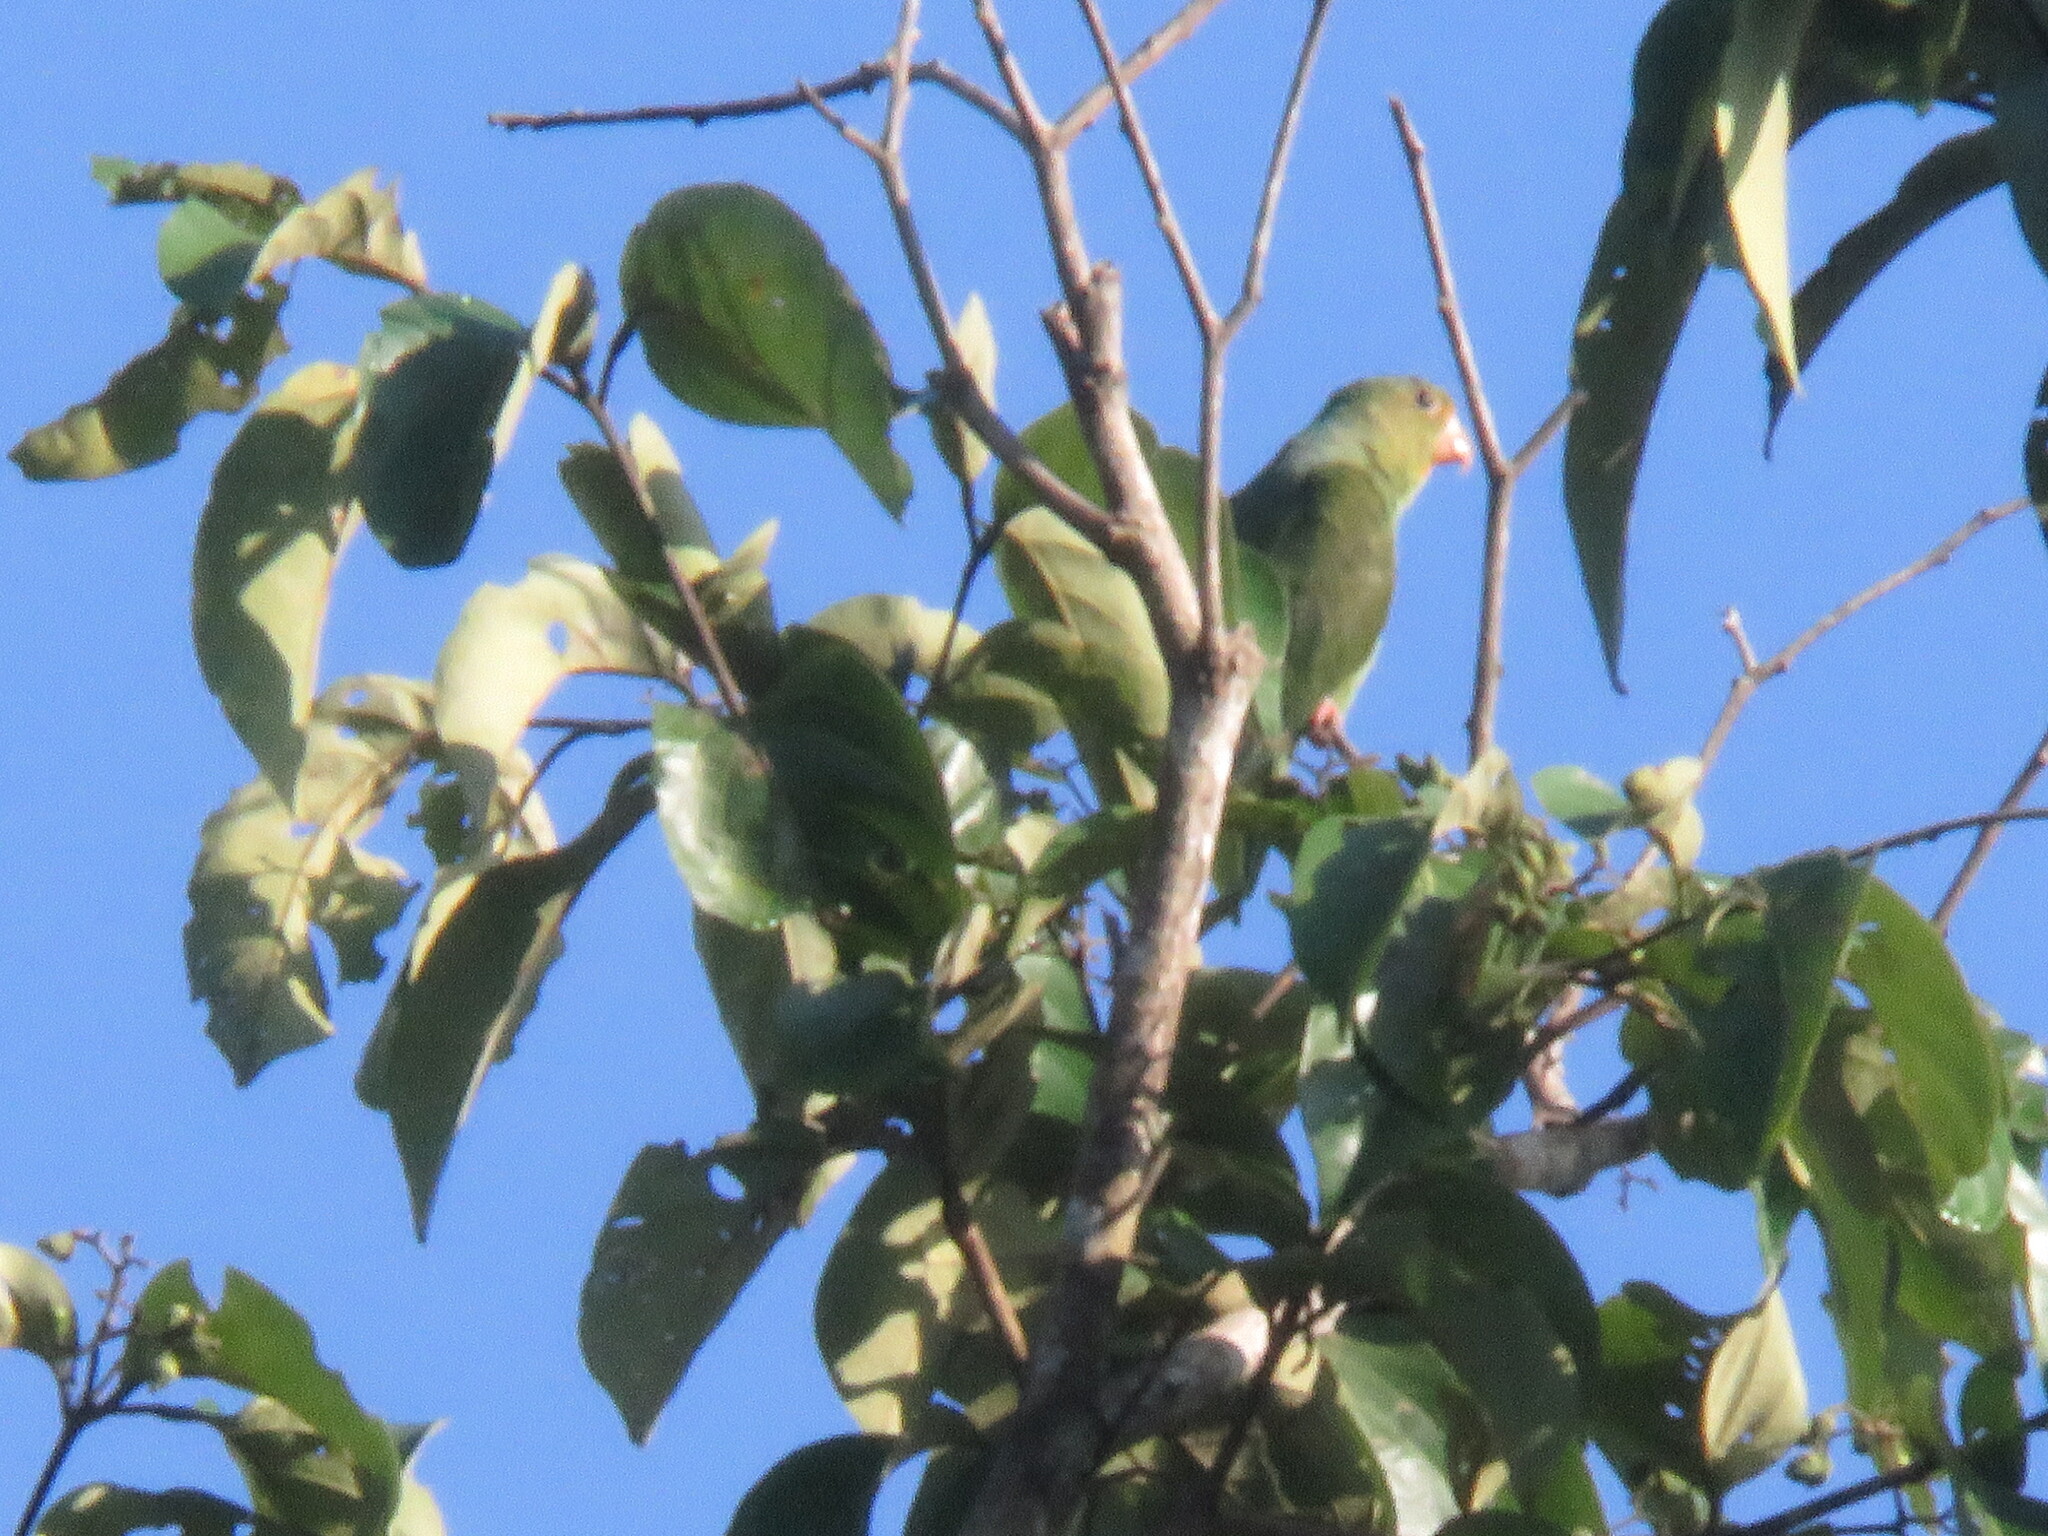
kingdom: Animalia
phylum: Chordata
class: Aves
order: Psittaciformes
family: Psittacidae
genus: Brotogeris
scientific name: Brotogeris cyanoptera
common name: Cobalt-winged parakeet
